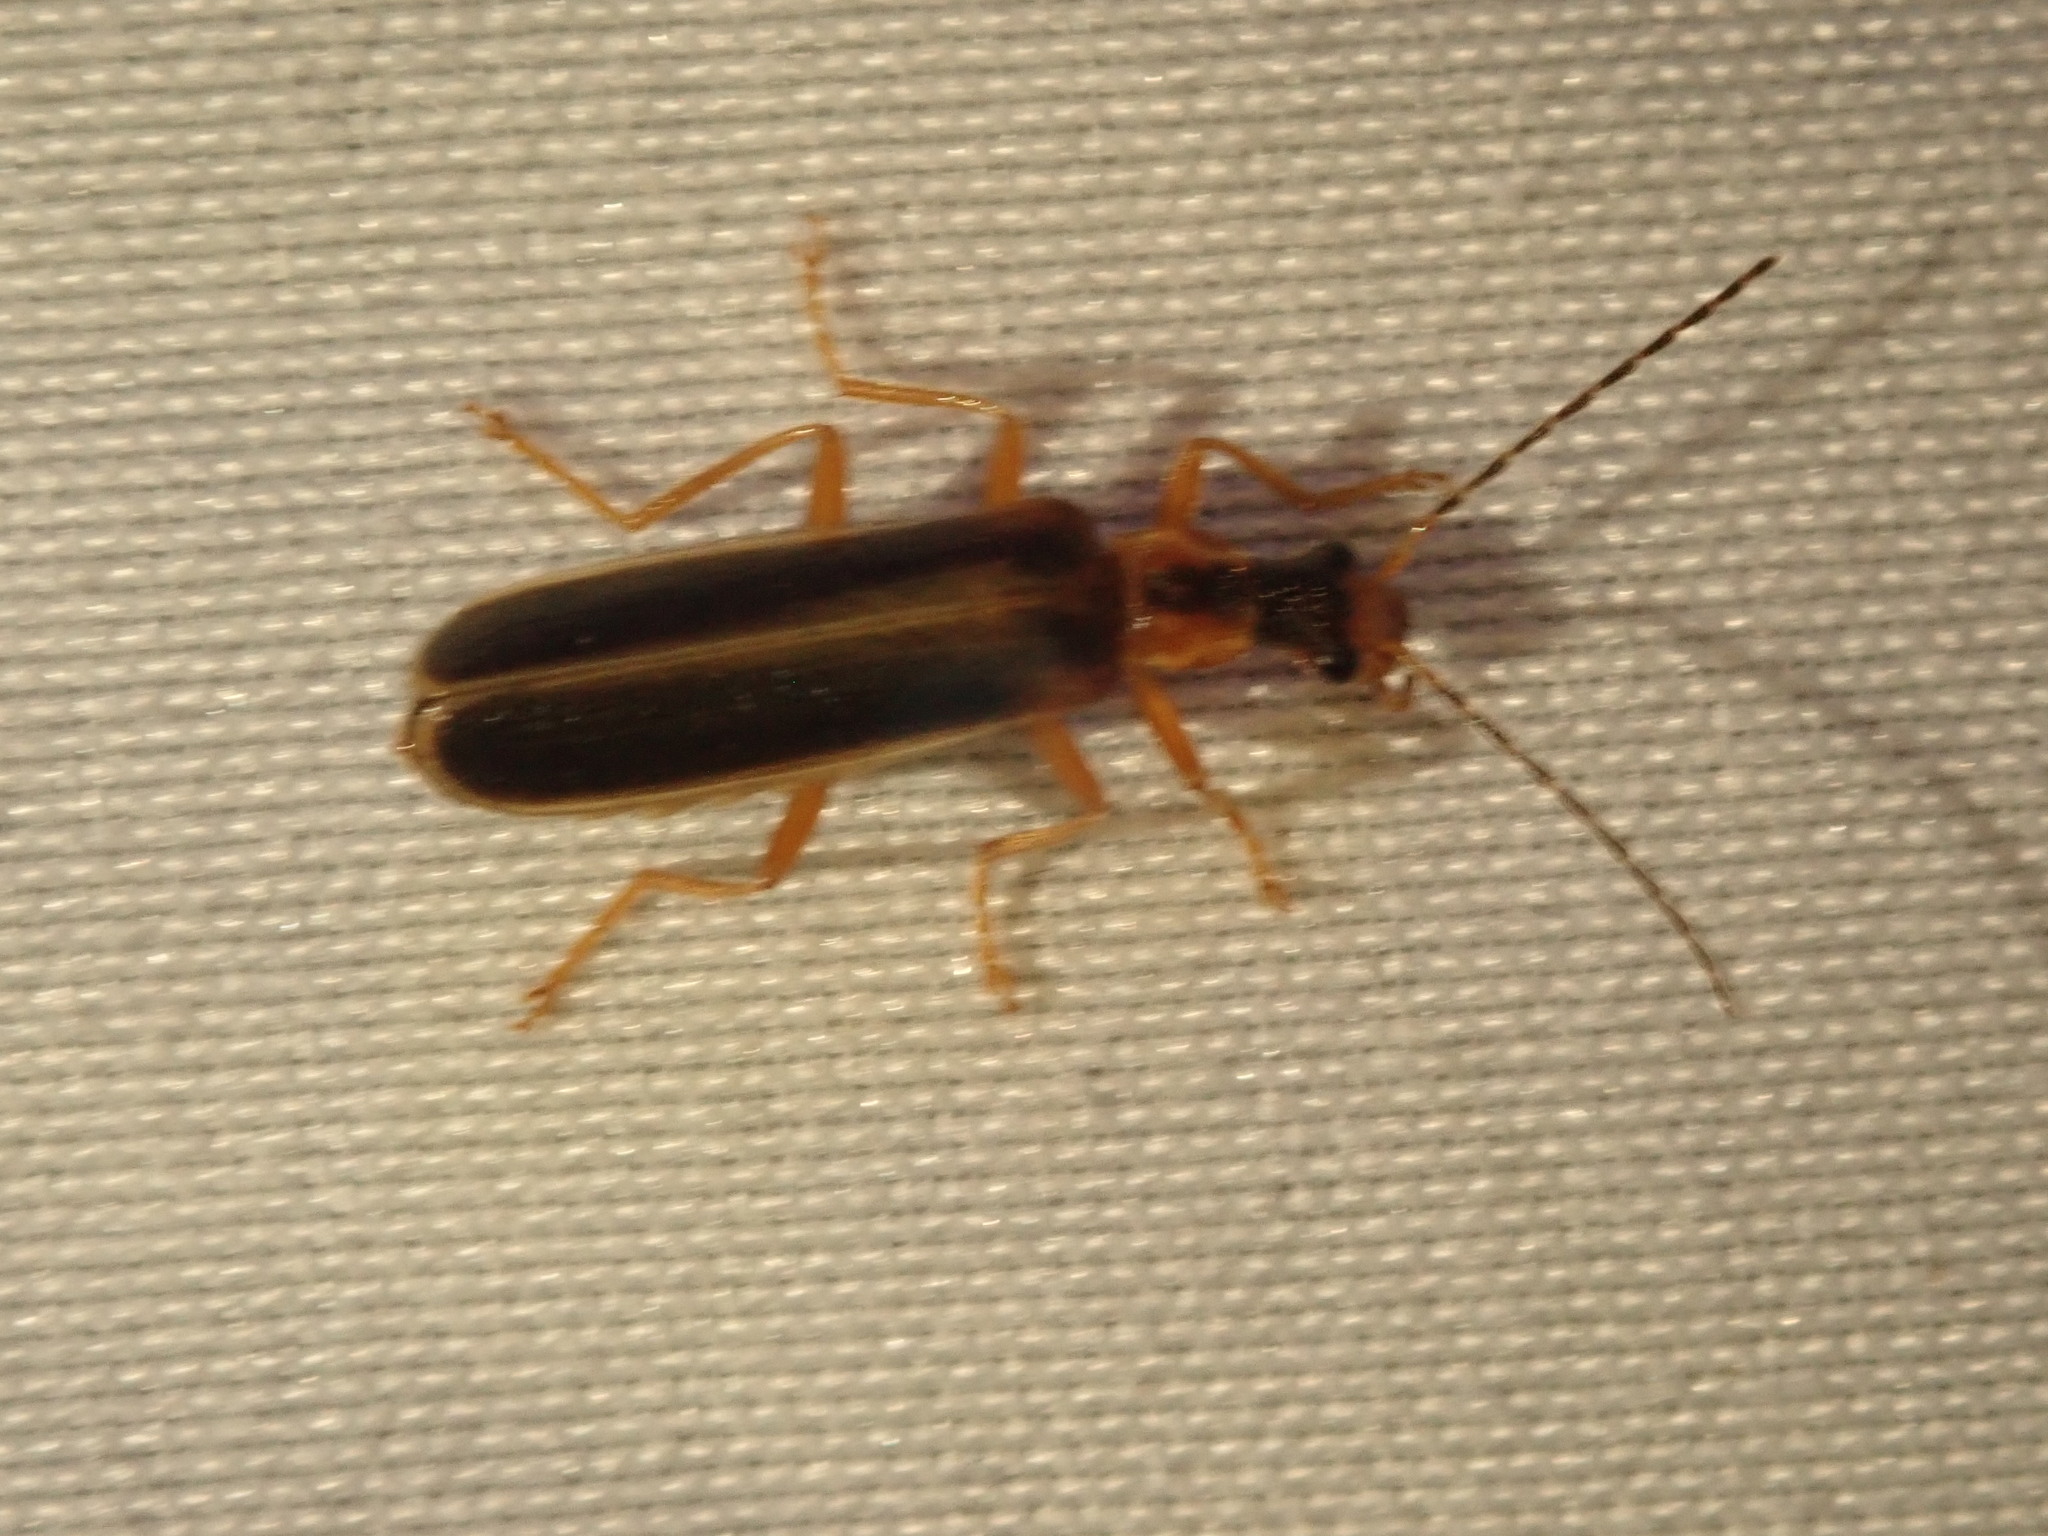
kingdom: Animalia
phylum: Arthropoda
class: Insecta
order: Coleoptera
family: Cantharidae
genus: Podabrus
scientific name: Podabrus brunnicollis
